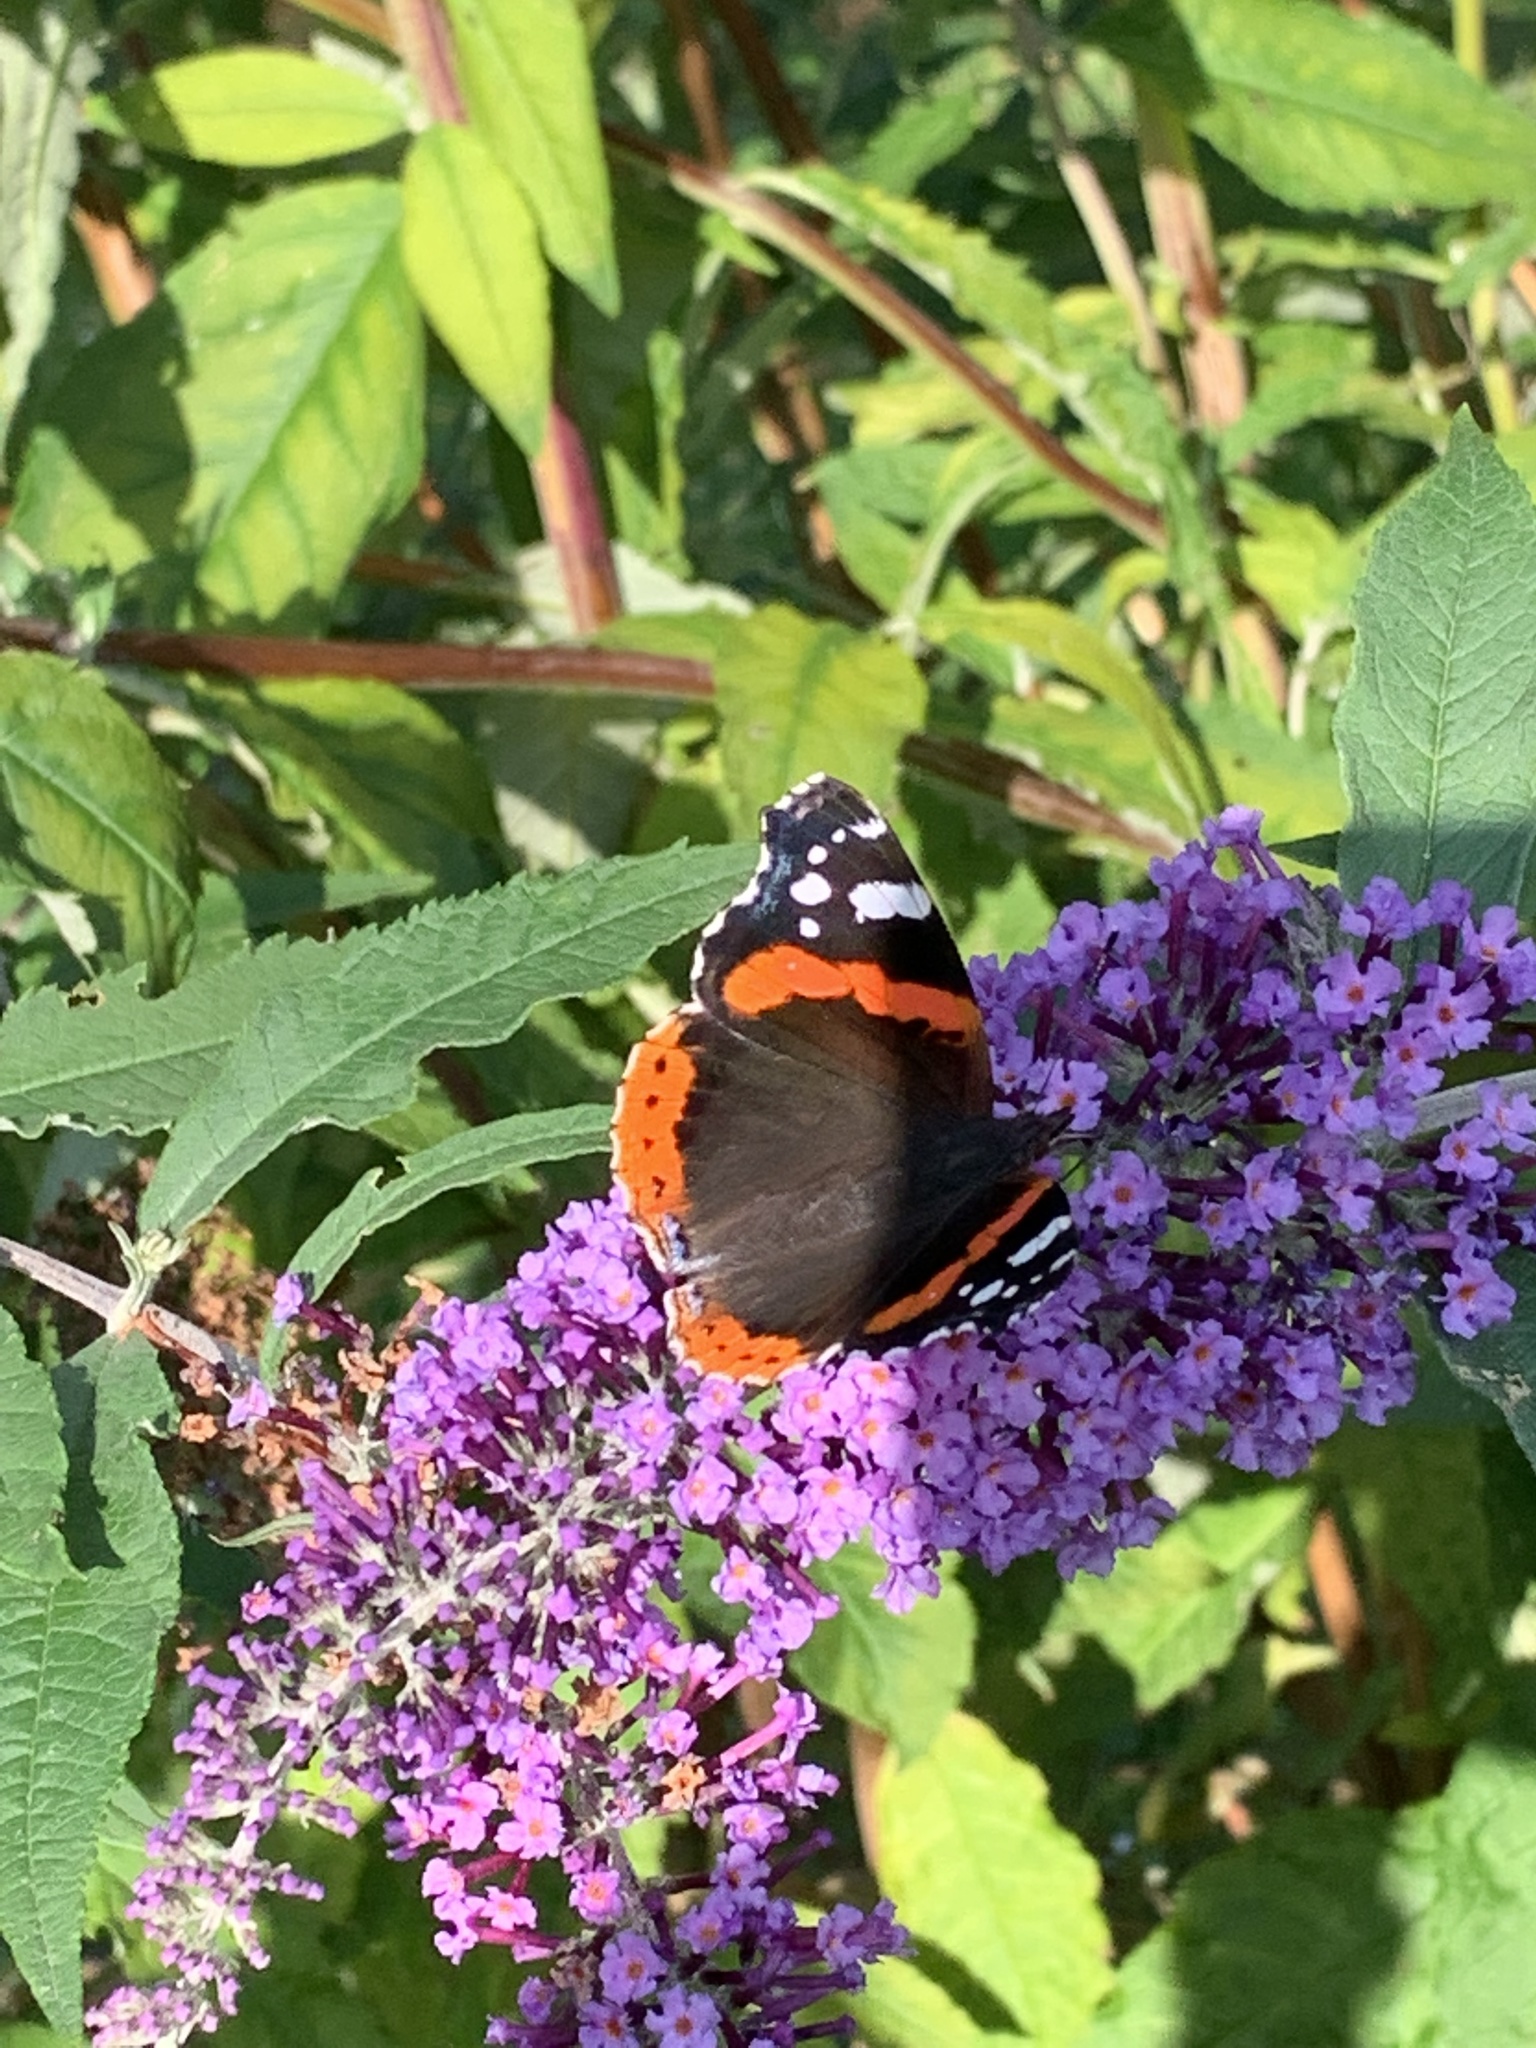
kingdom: Animalia
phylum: Arthropoda
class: Insecta
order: Lepidoptera
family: Nymphalidae
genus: Vanessa
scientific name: Vanessa atalanta
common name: Red admiral
